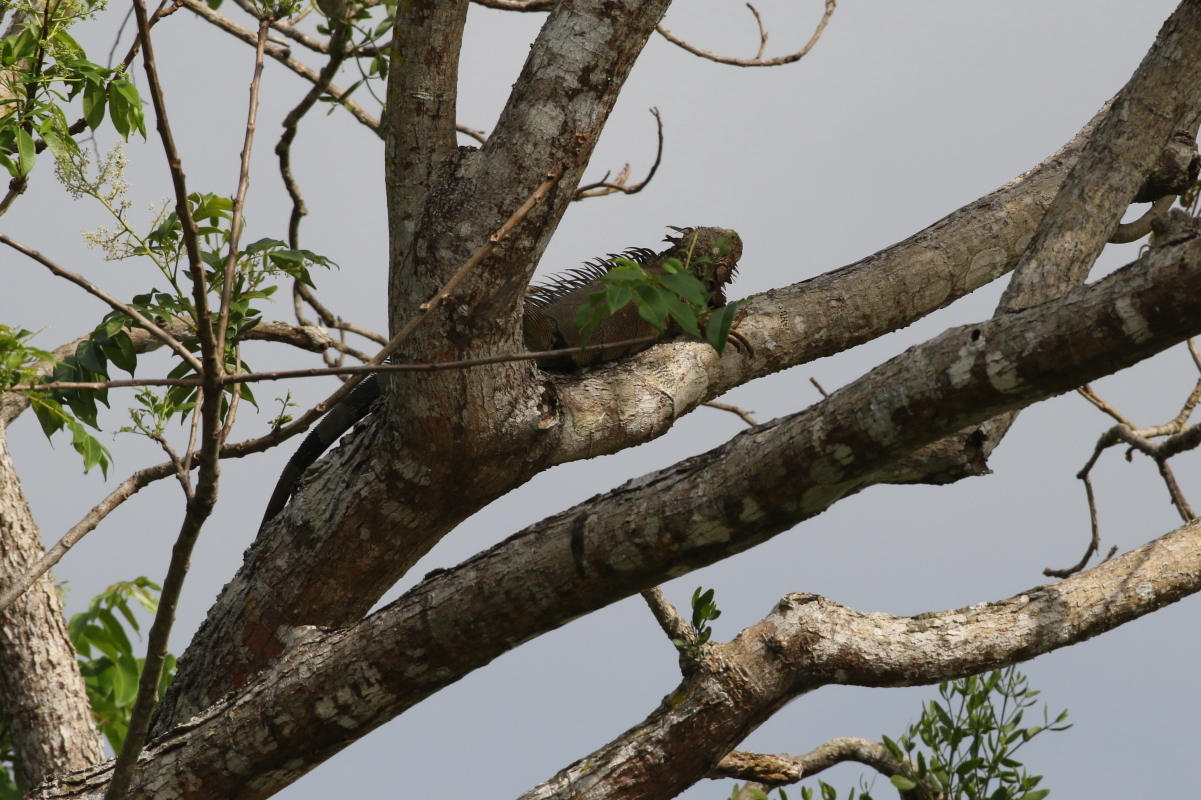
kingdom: Animalia
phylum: Chordata
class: Squamata
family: Iguanidae
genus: Iguana
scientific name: Iguana iguana
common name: Green iguana
